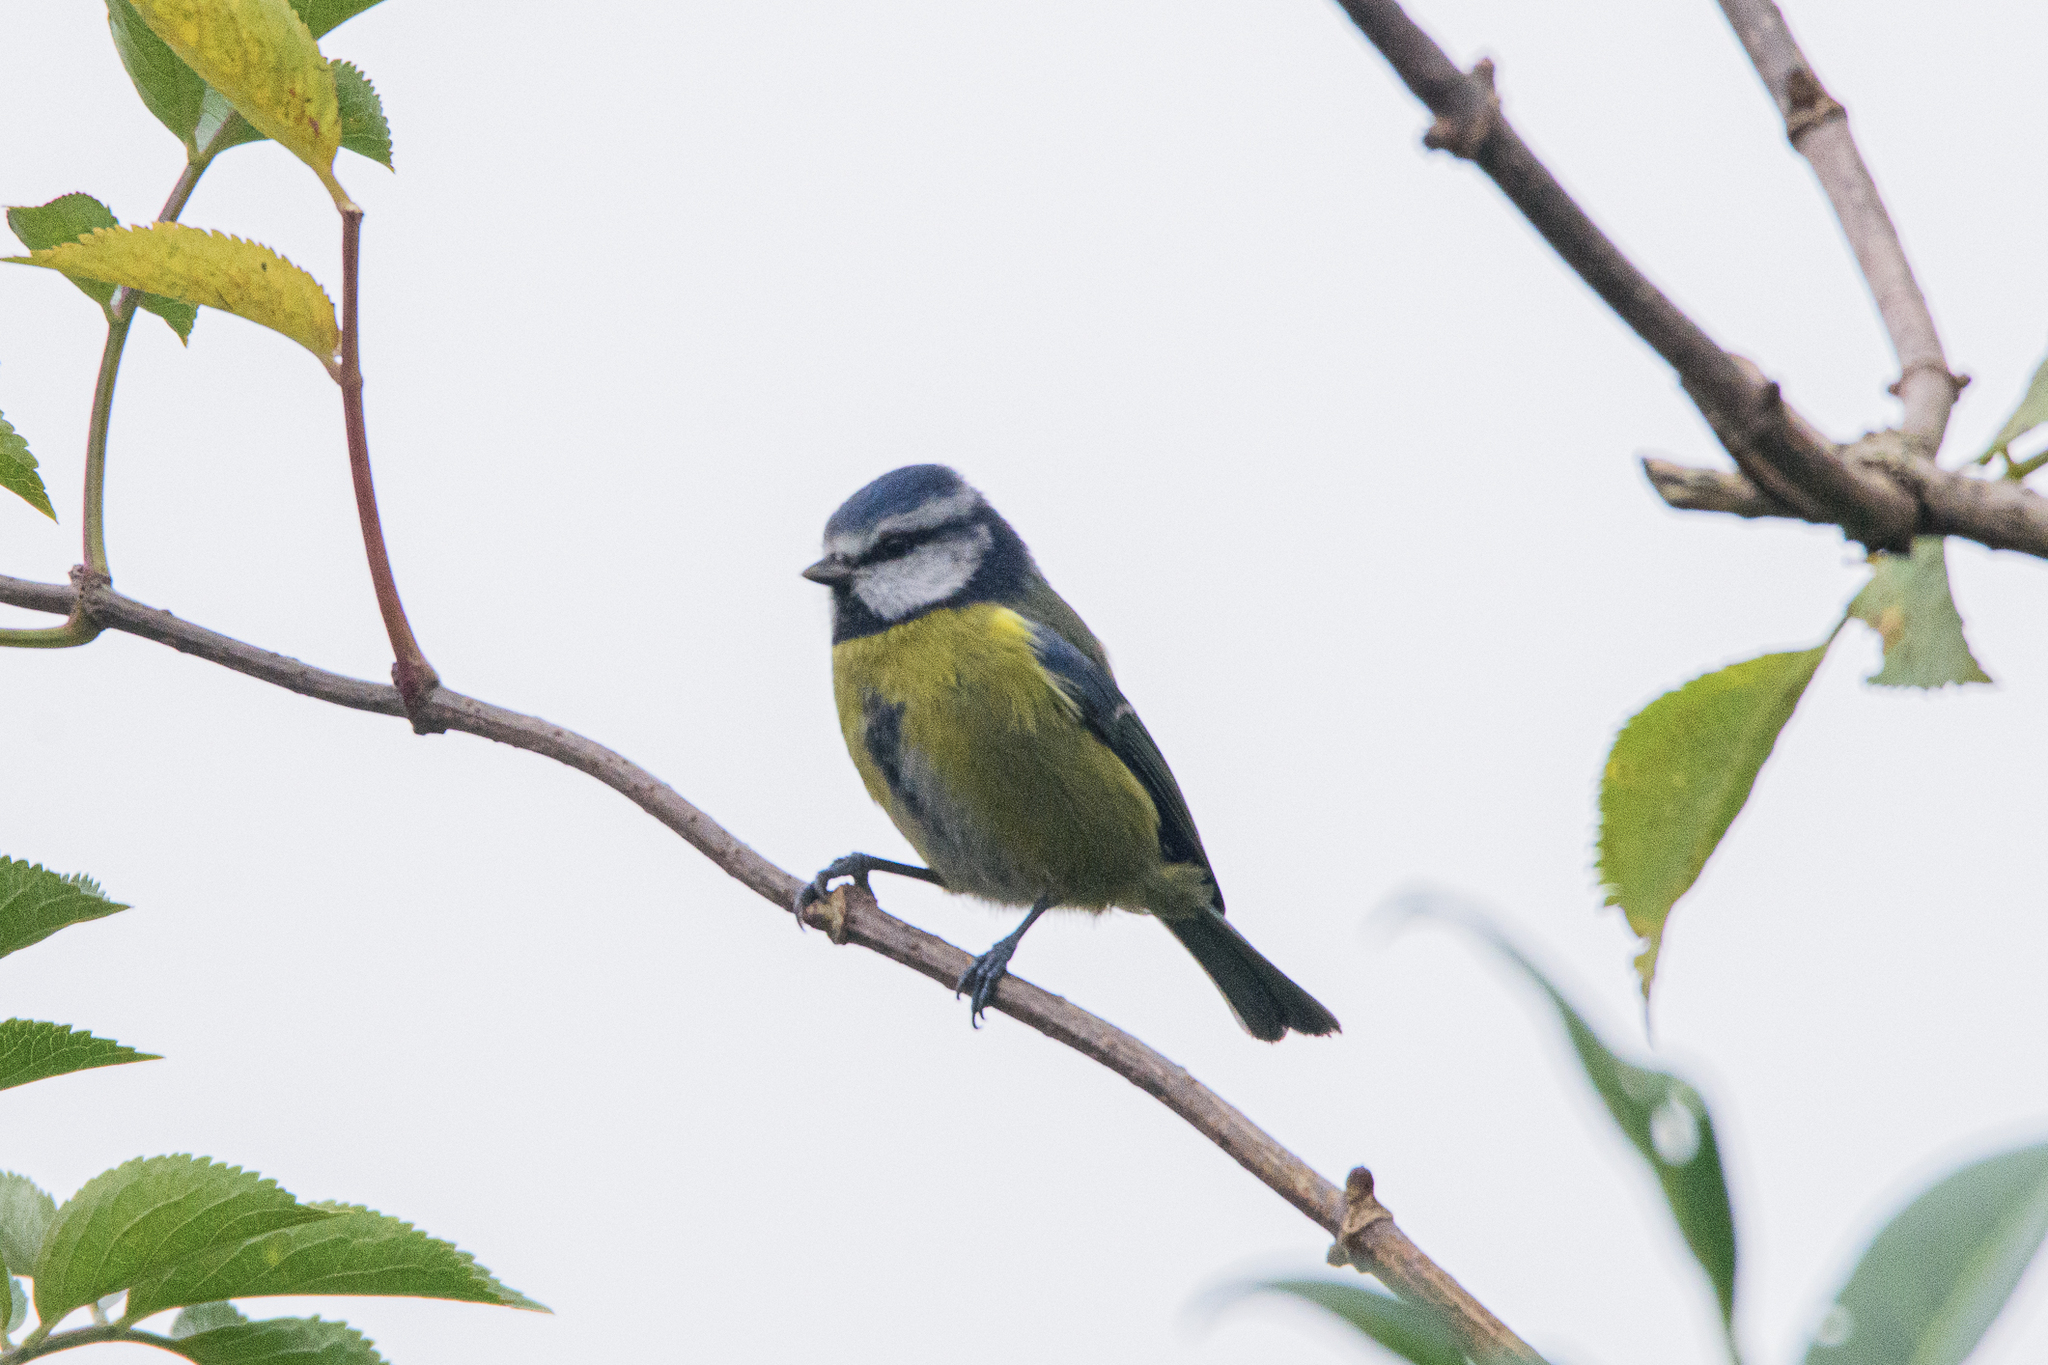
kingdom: Animalia
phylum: Chordata
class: Aves
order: Passeriformes
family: Paridae
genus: Cyanistes
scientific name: Cyanistes caeruleus
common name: Eurasian blue tit
